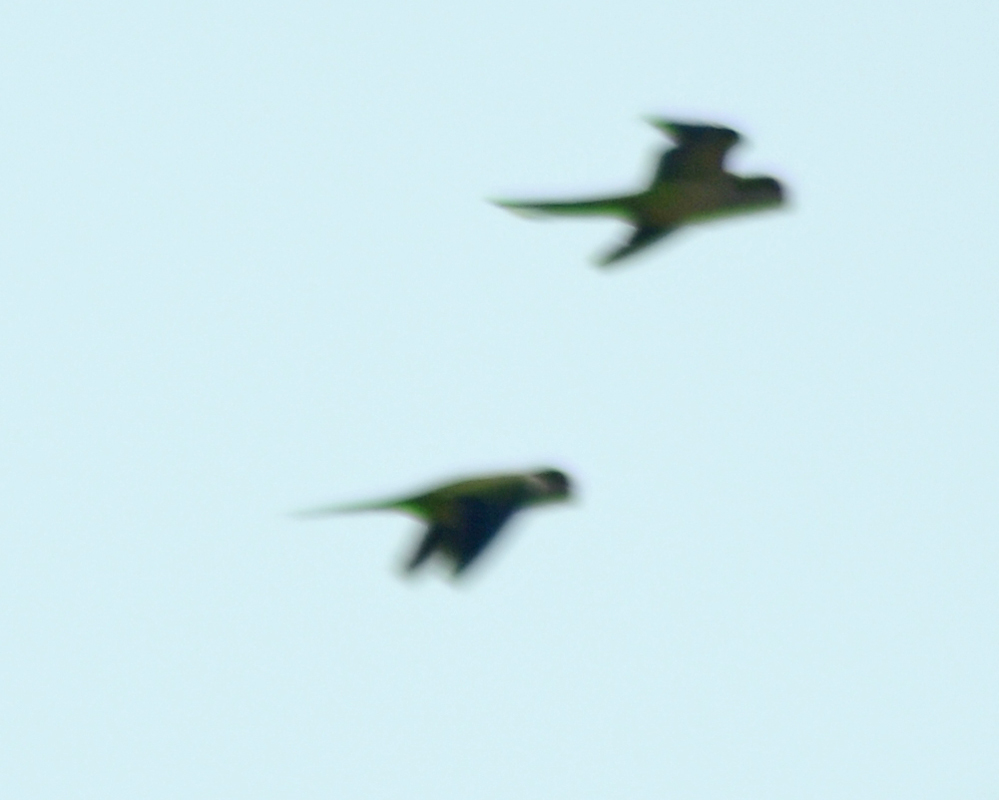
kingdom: Animalia
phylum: Chordata
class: Aves
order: Psittaciformes
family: Psittacidae
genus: Myiopsitta
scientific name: Myiopsitta monachus
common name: Monk parakeet
